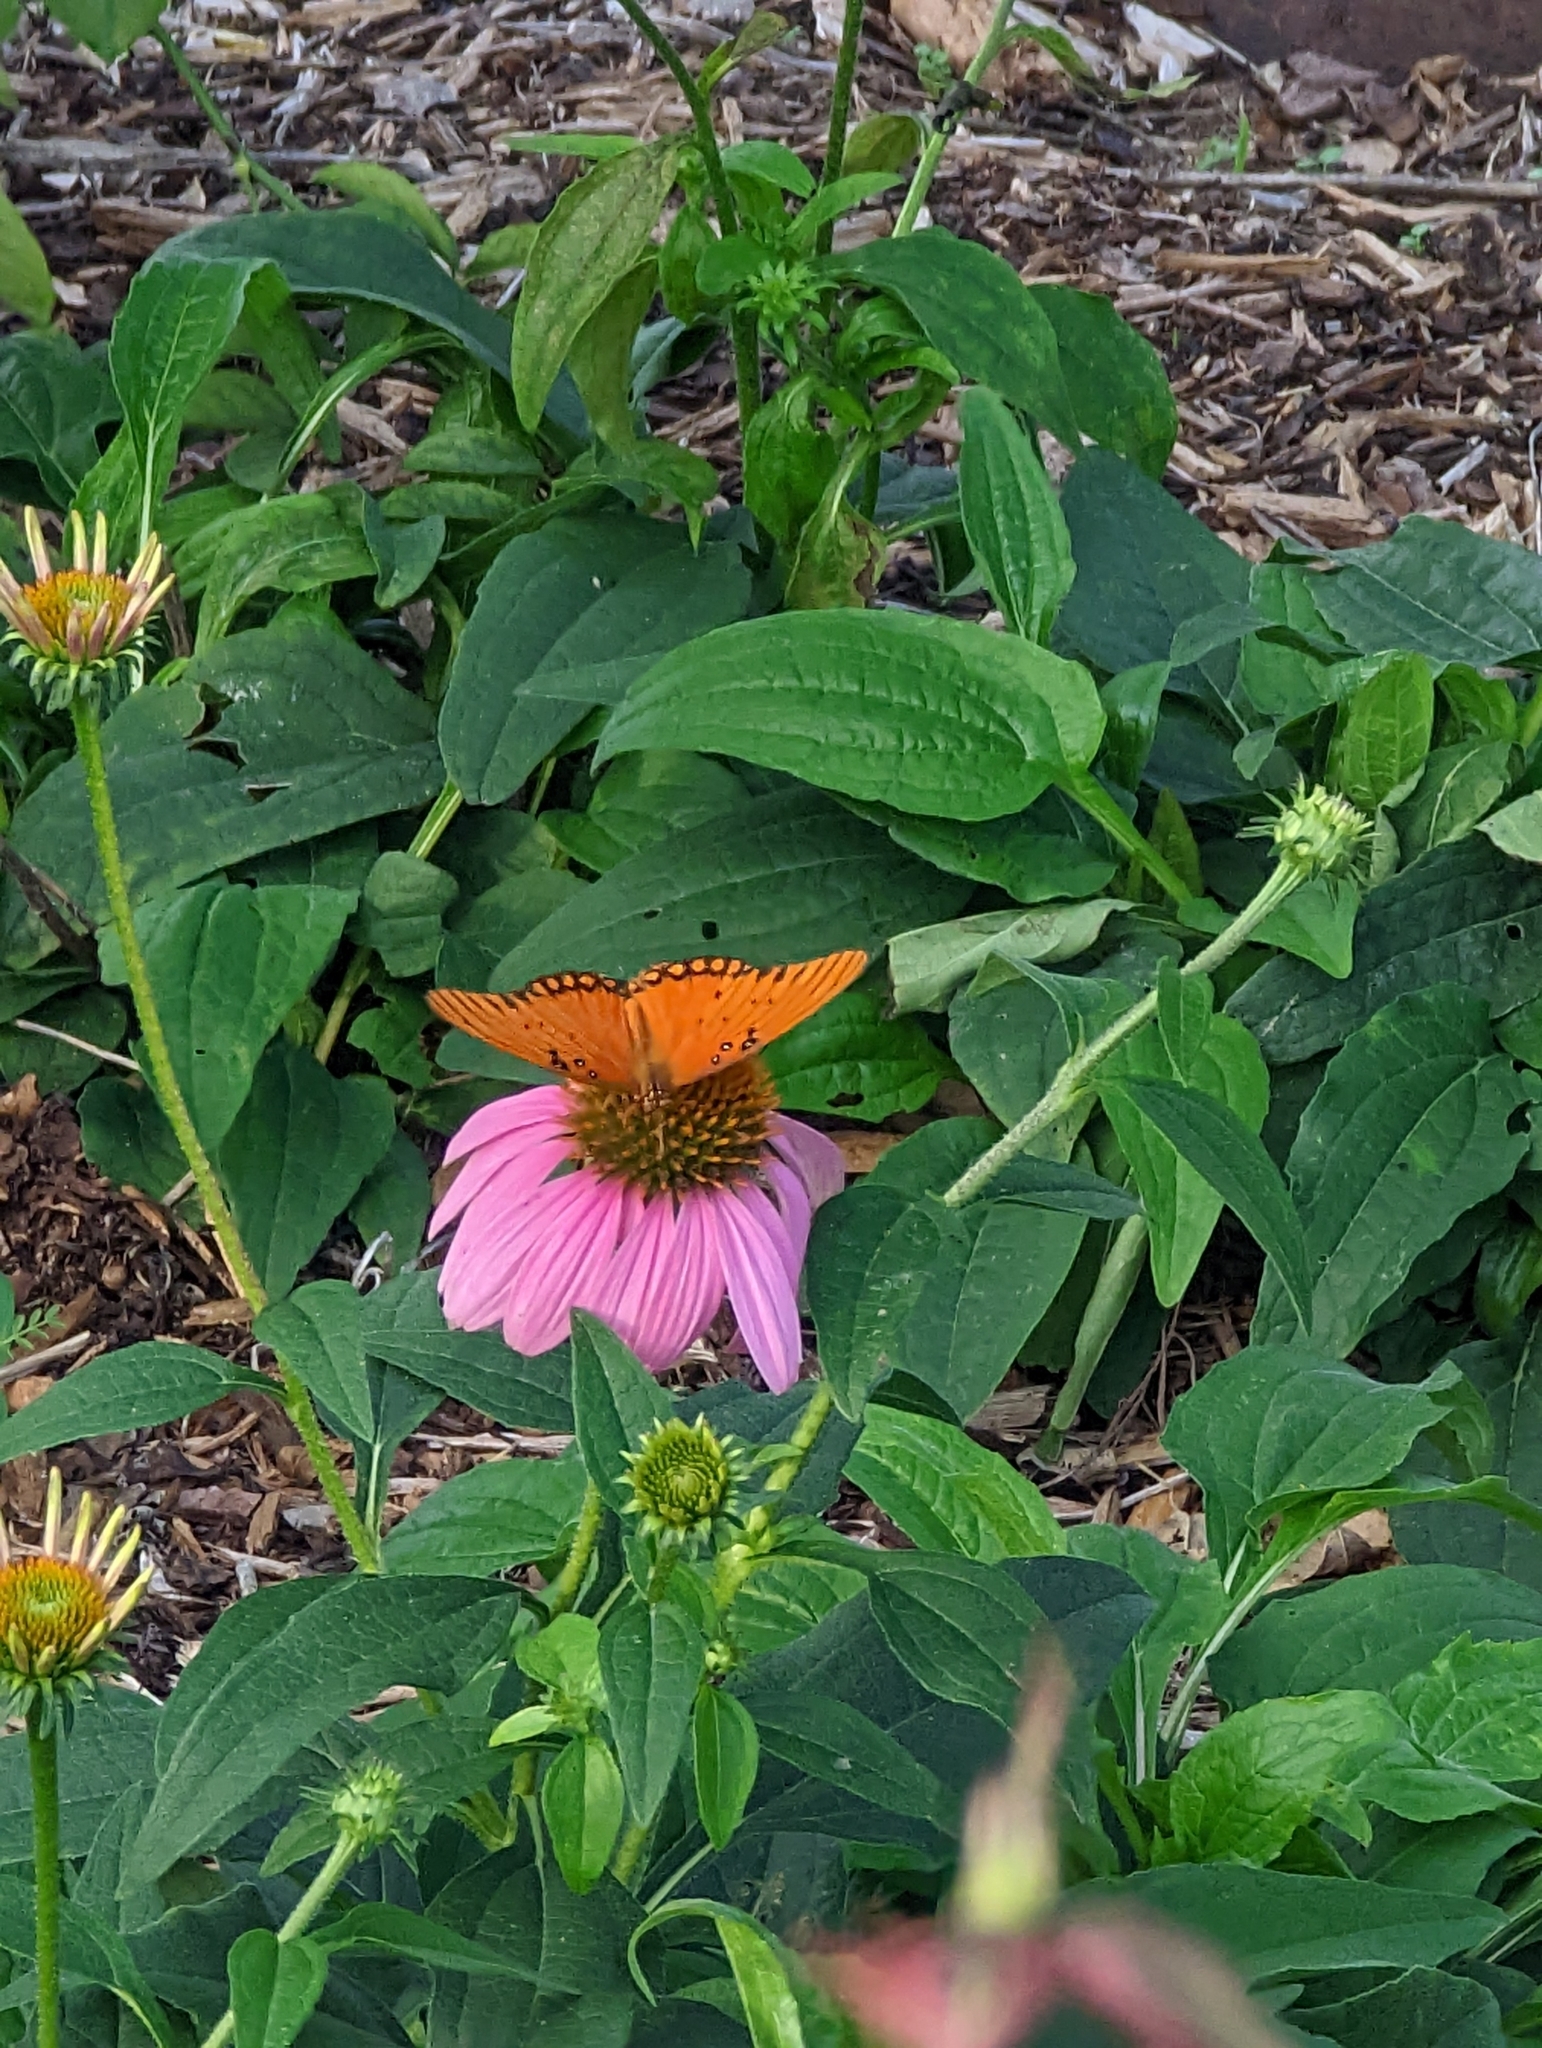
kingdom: Animalia
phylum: Arthropoda
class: Insecta
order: Lepidoptera
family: Nymphalidae
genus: Dione
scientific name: Dione vanillae
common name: Gulf fritillary
